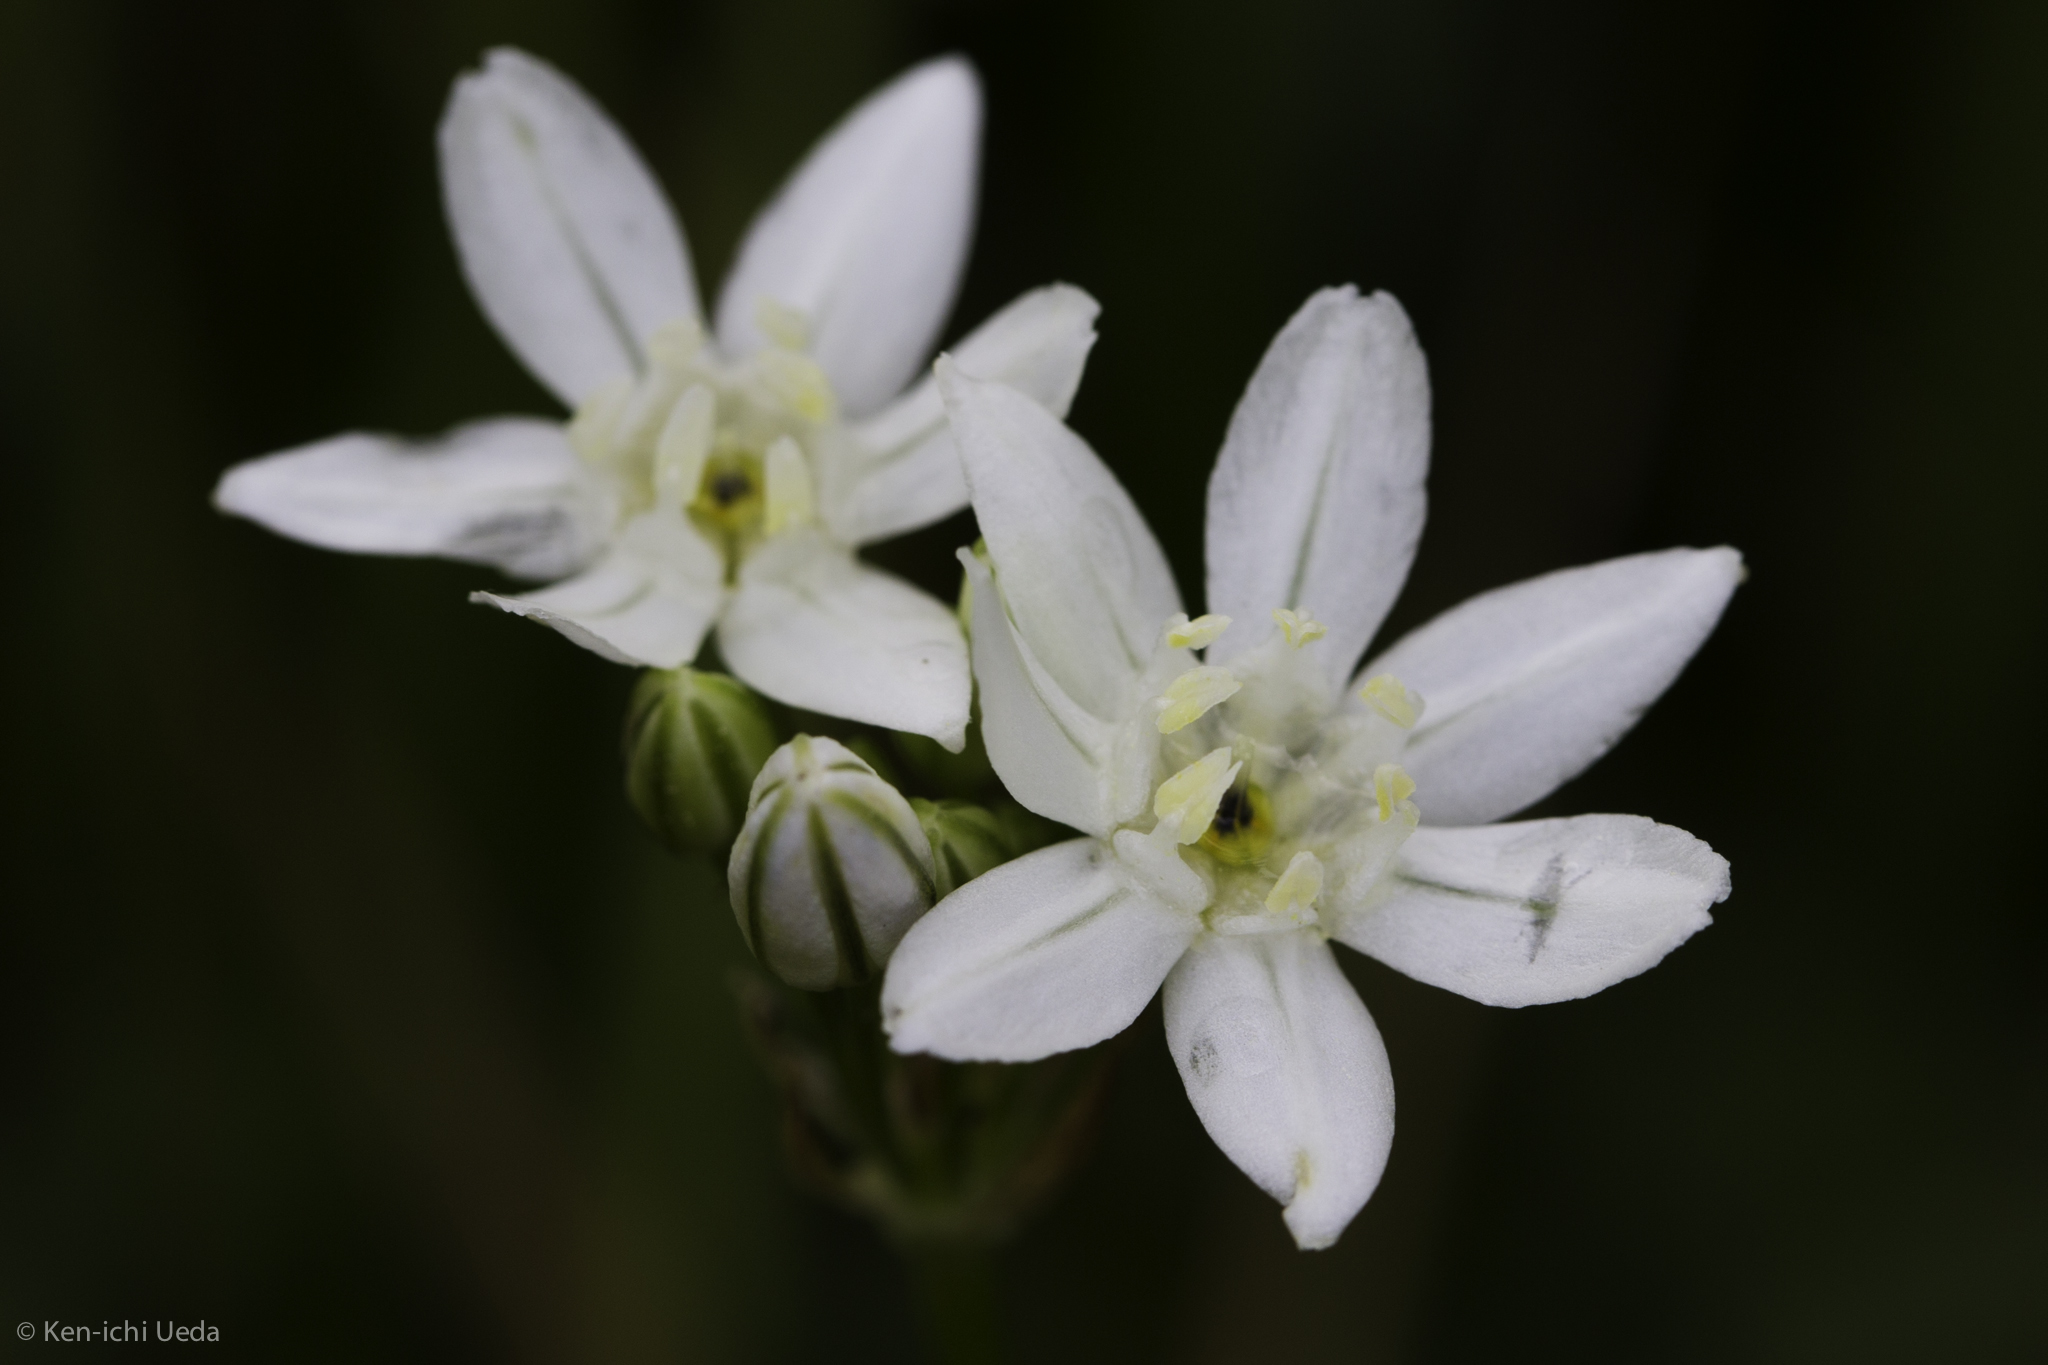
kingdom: Plantae
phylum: Tracheophyta
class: Liliopsida
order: Asparagales
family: Asparagaceae
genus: Triteleia
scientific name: Triteleia hyacinthina
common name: White brodiaea
